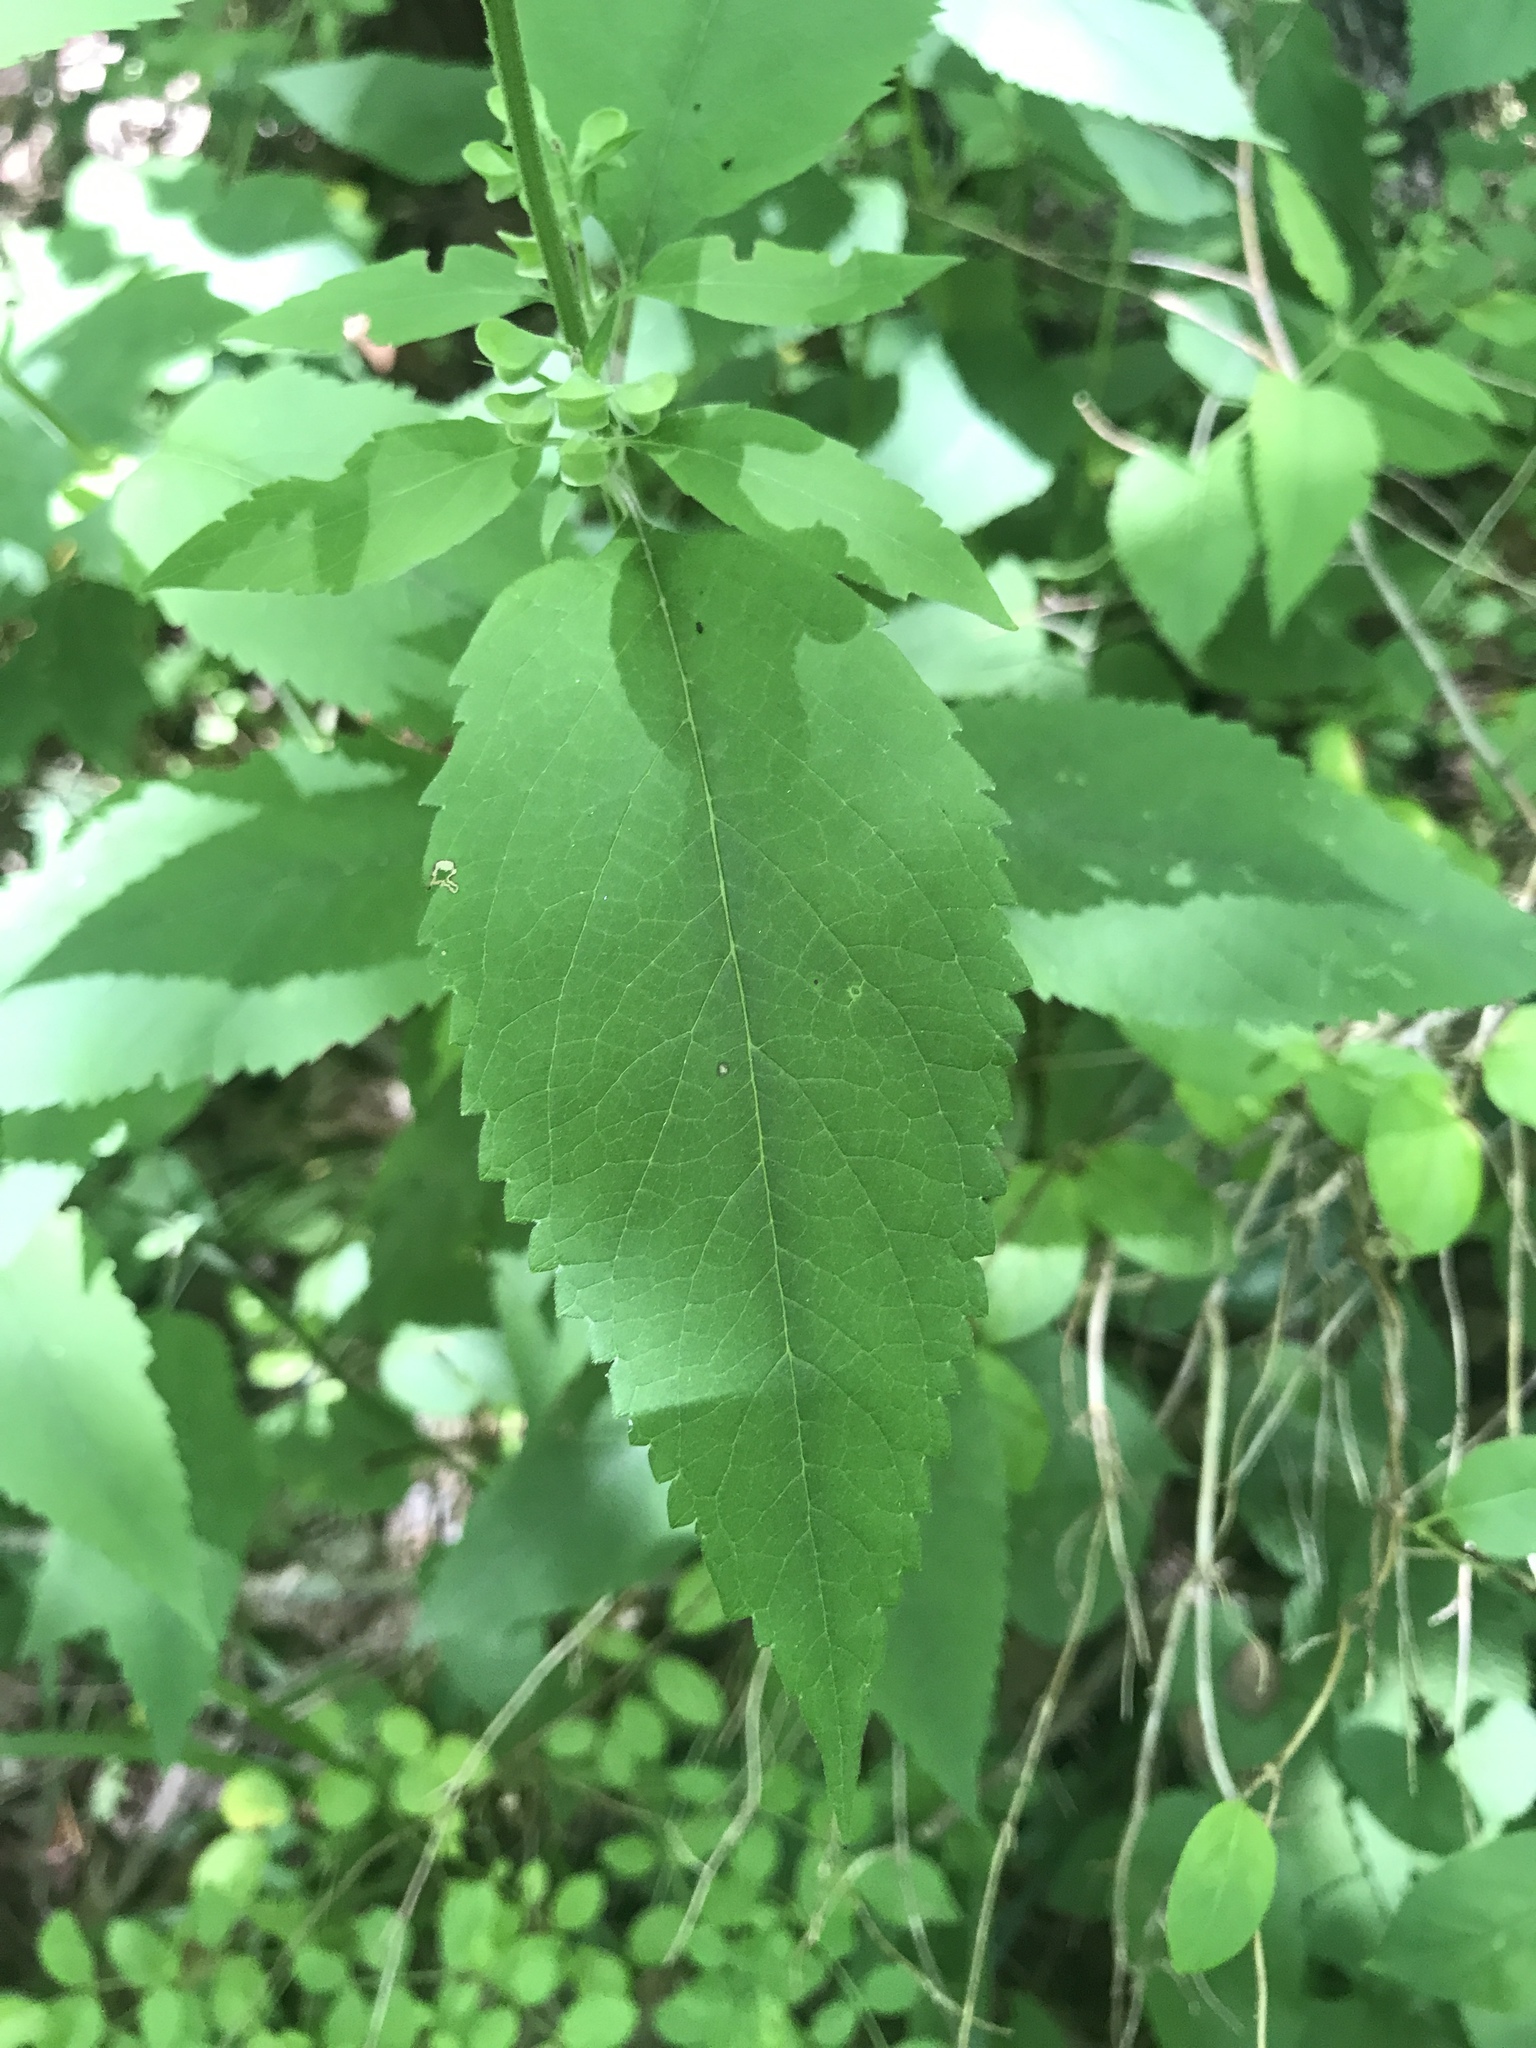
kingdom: Plantae
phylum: Tracheophyta
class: Magnoliopsida
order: Lamiales
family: Lamiaceae
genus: Scutellaria
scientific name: Scutellaria incana
